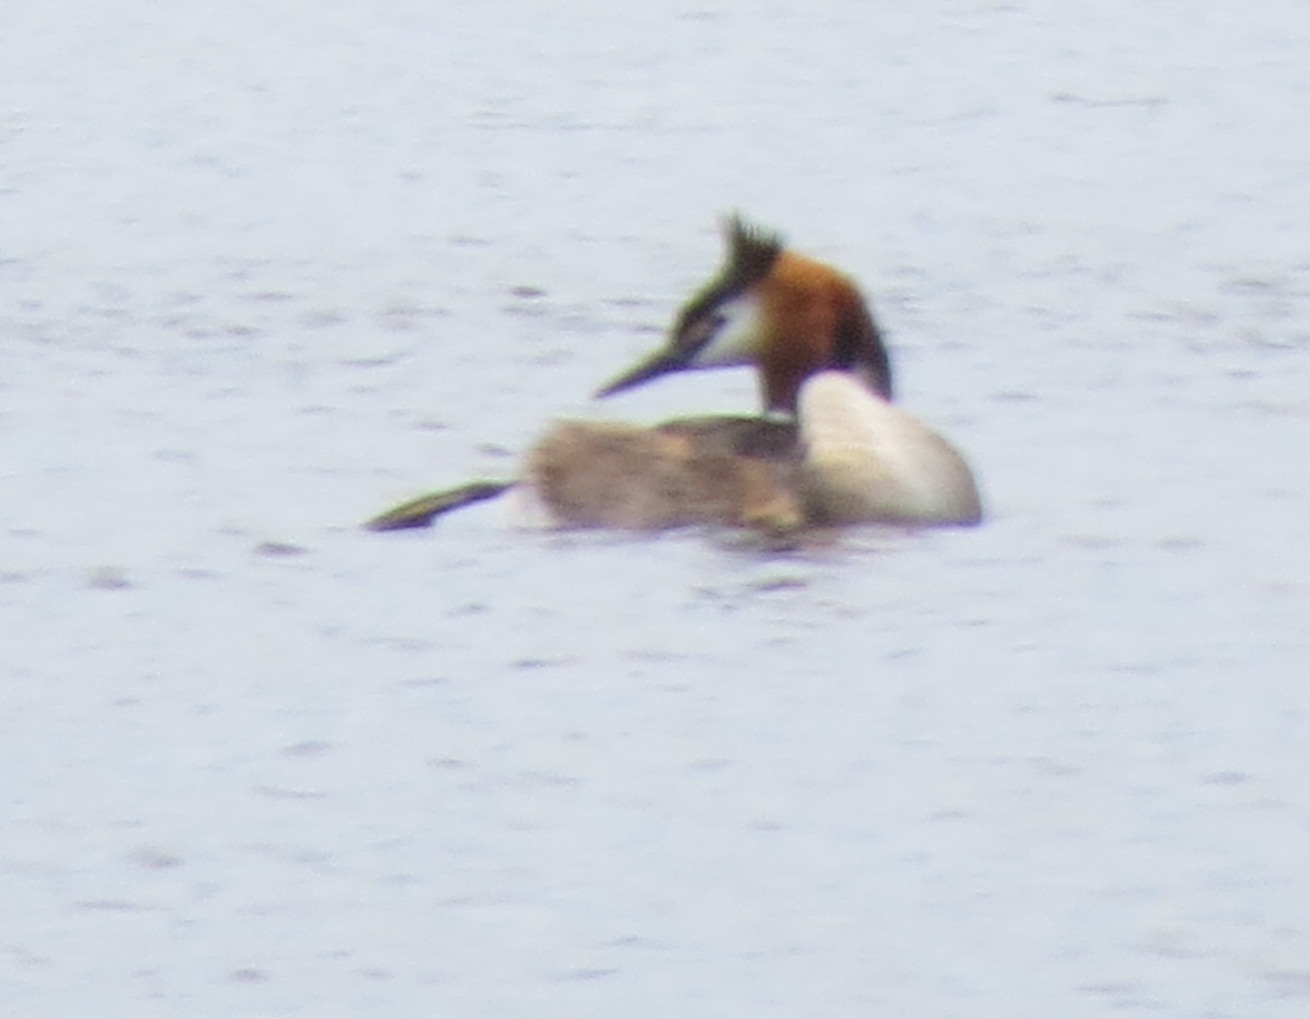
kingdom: Animalia
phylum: Chordata
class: Aves
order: Podicipediformes
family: Podicipedidae
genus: Podiceps
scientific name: Podiceps cristatus
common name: Great crested grebe
